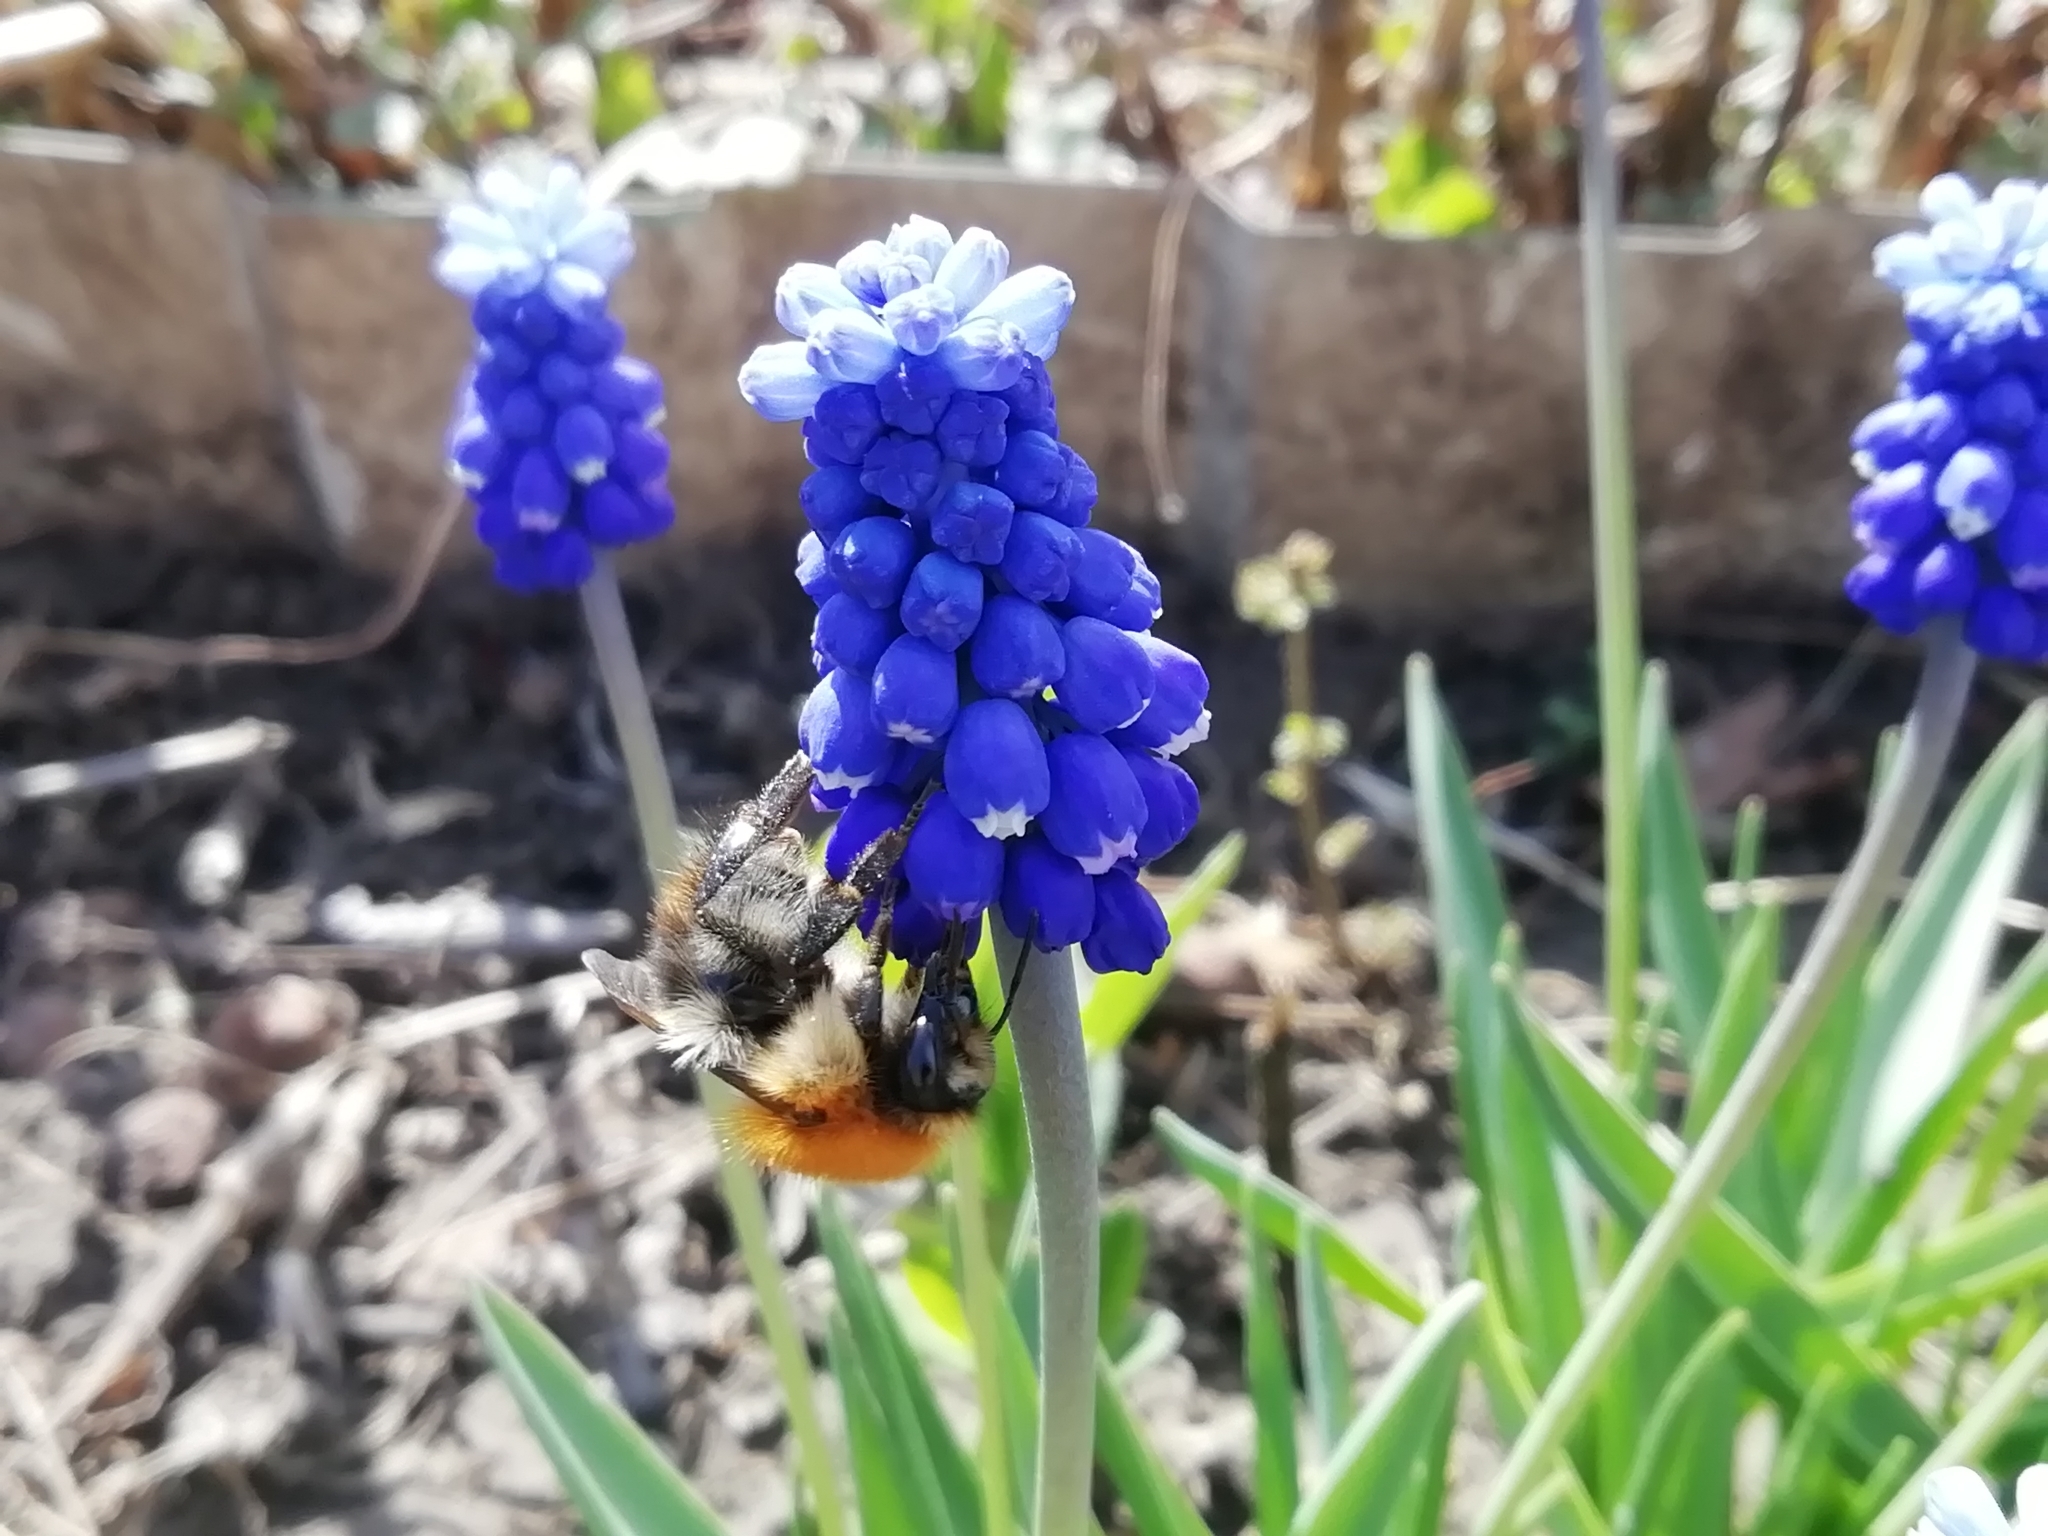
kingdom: Animalia
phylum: Arthropoda
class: Insecta
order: Hymenoptera
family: Apidae
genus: Bombus
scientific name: Bombus pascuorum
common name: Common carder bee
